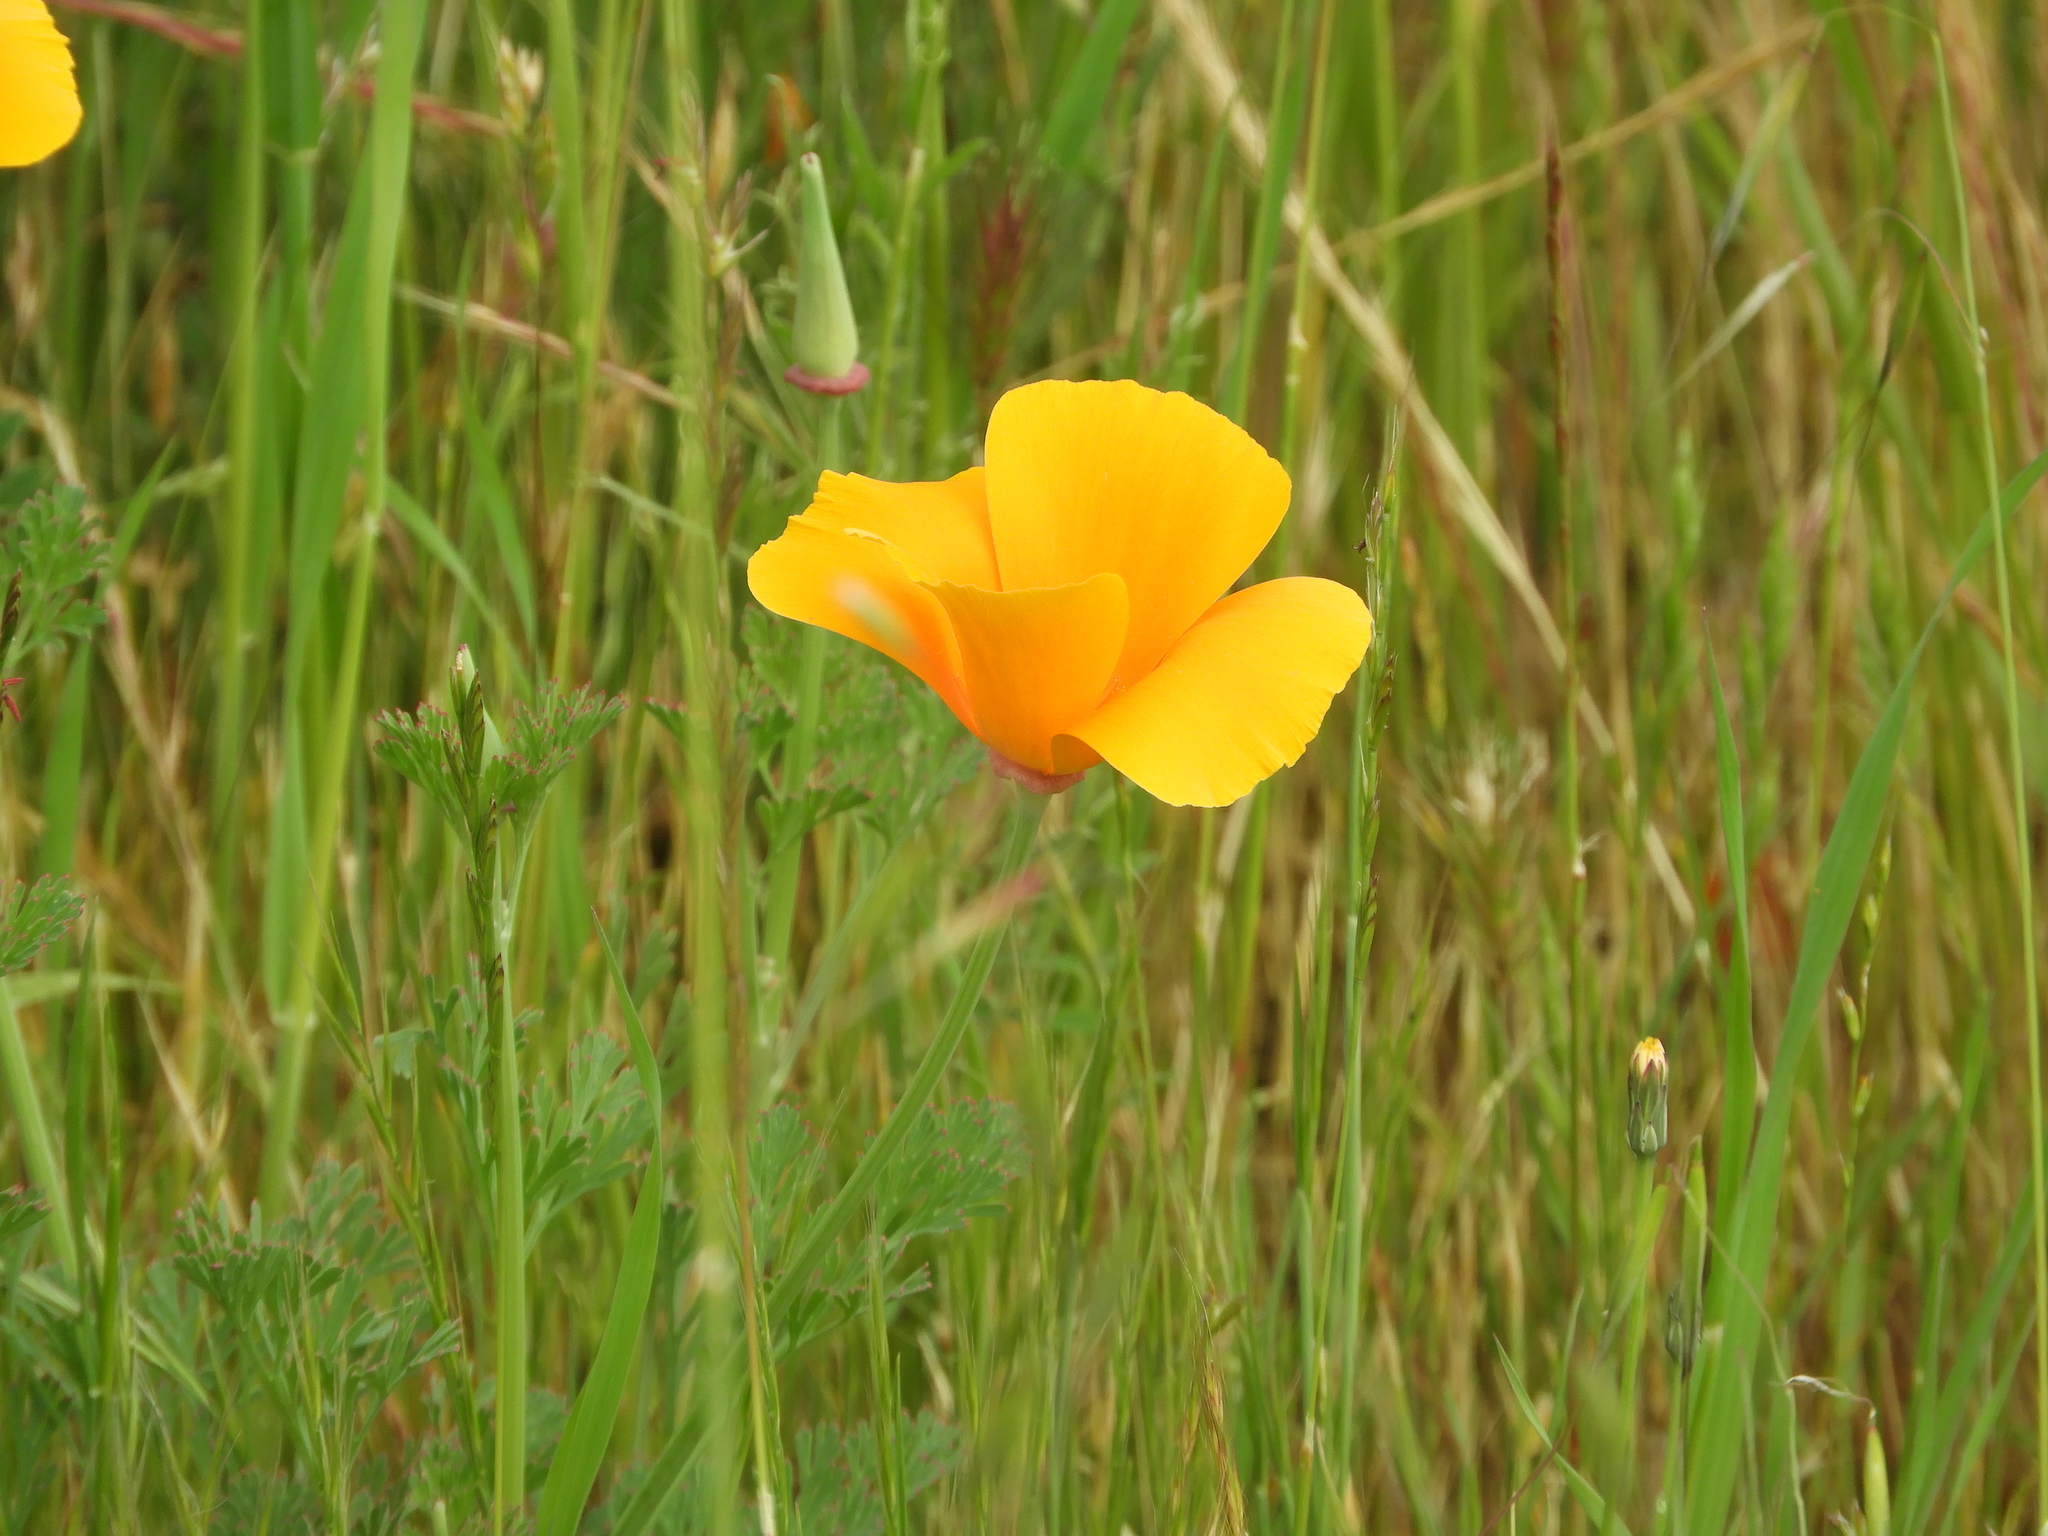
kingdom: Plantae
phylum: Tracheophyta
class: Magnoliopsida
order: Ranunculales
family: Papaveraceae
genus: Eschscholzia
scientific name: Eschscholzia californica
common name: California poppy
